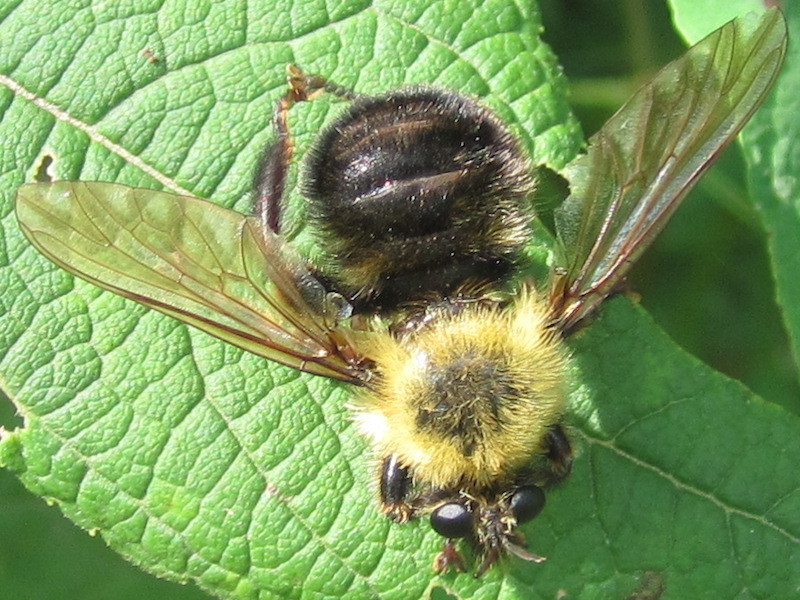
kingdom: Animalia
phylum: Arthropoda
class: Insecta
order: Diptera
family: Asilidae
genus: Laphria
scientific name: Laphria thoracica
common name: Bumble bee mimic robber fly
